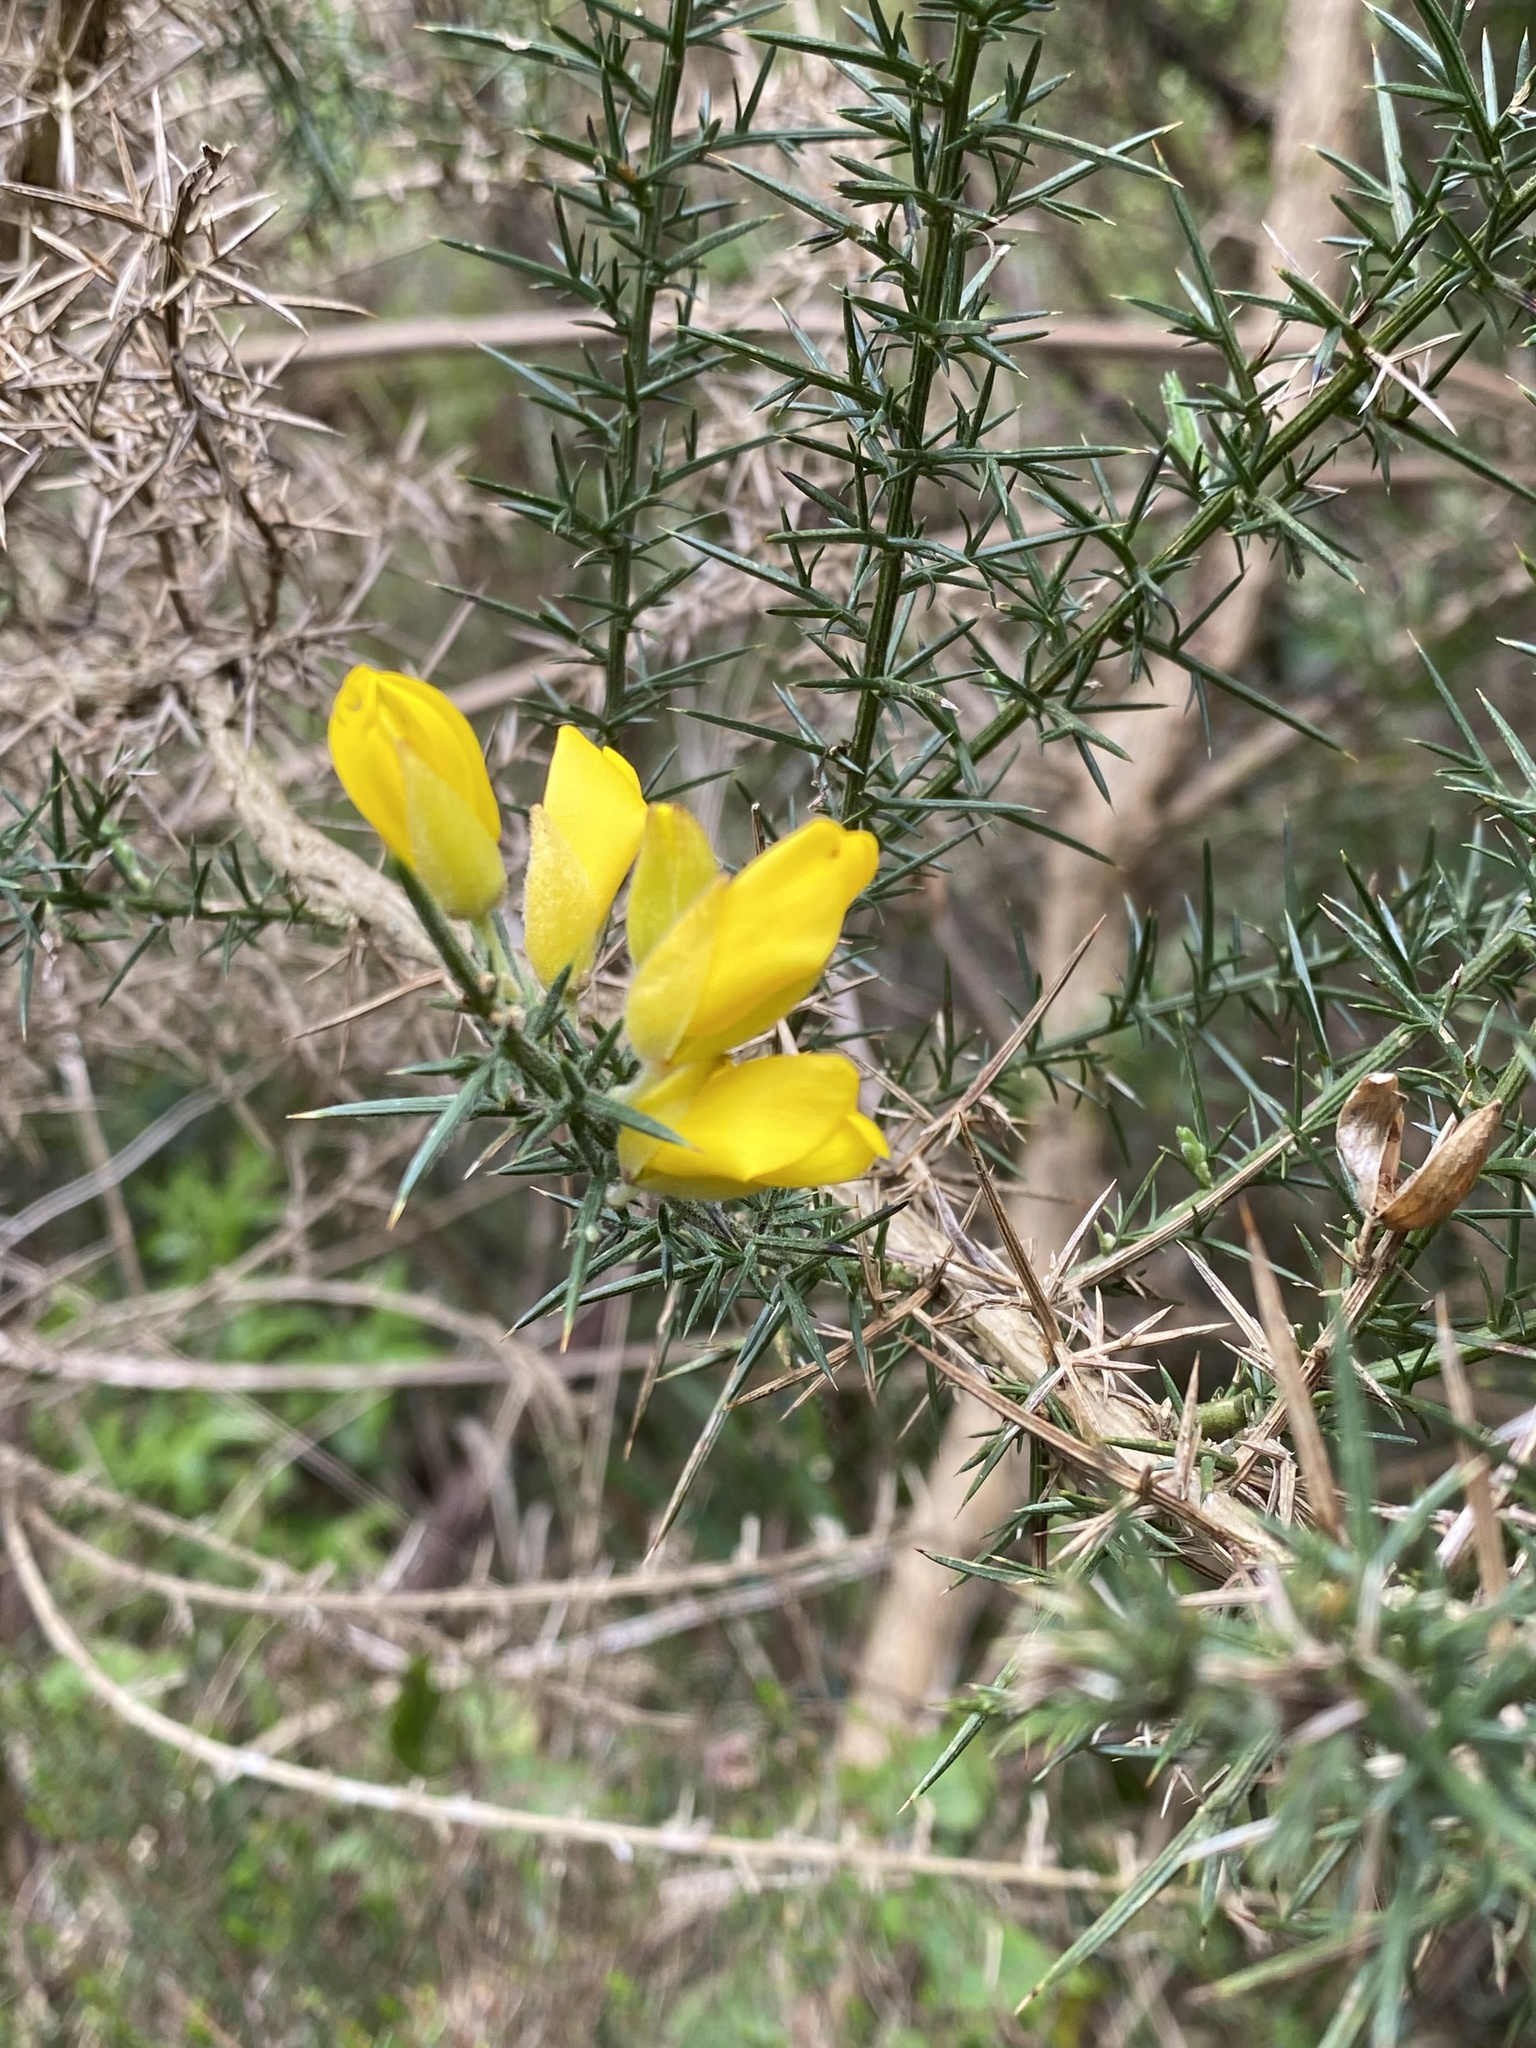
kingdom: Plantae
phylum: Tracheophyta
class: Magnoliopsida
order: Fabales
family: Fabaceae
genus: Ulex
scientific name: Ulex europaeus
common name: Common gorse
